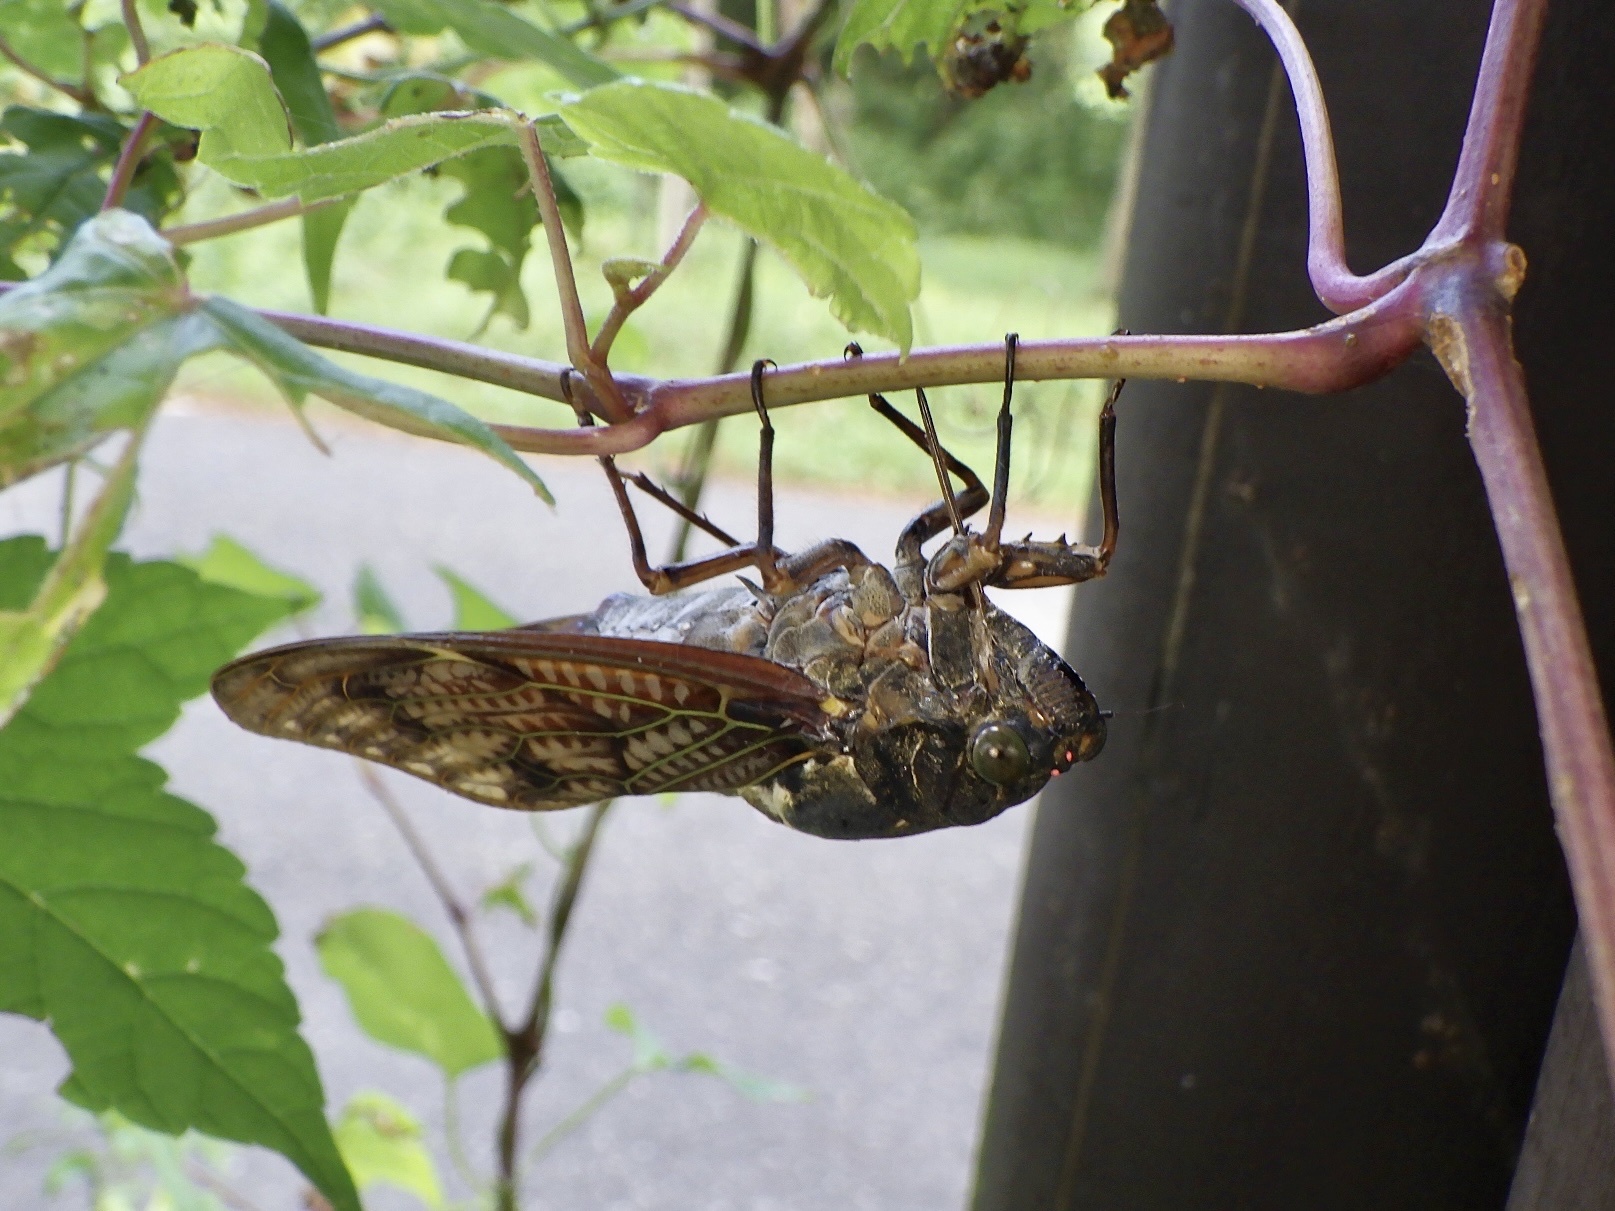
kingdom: Animalia
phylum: Arthropoda
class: Insecta
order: Hemiptera
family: Cicadidae
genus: Graptopsaltria
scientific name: Graptopsaltria nigrofuscata
